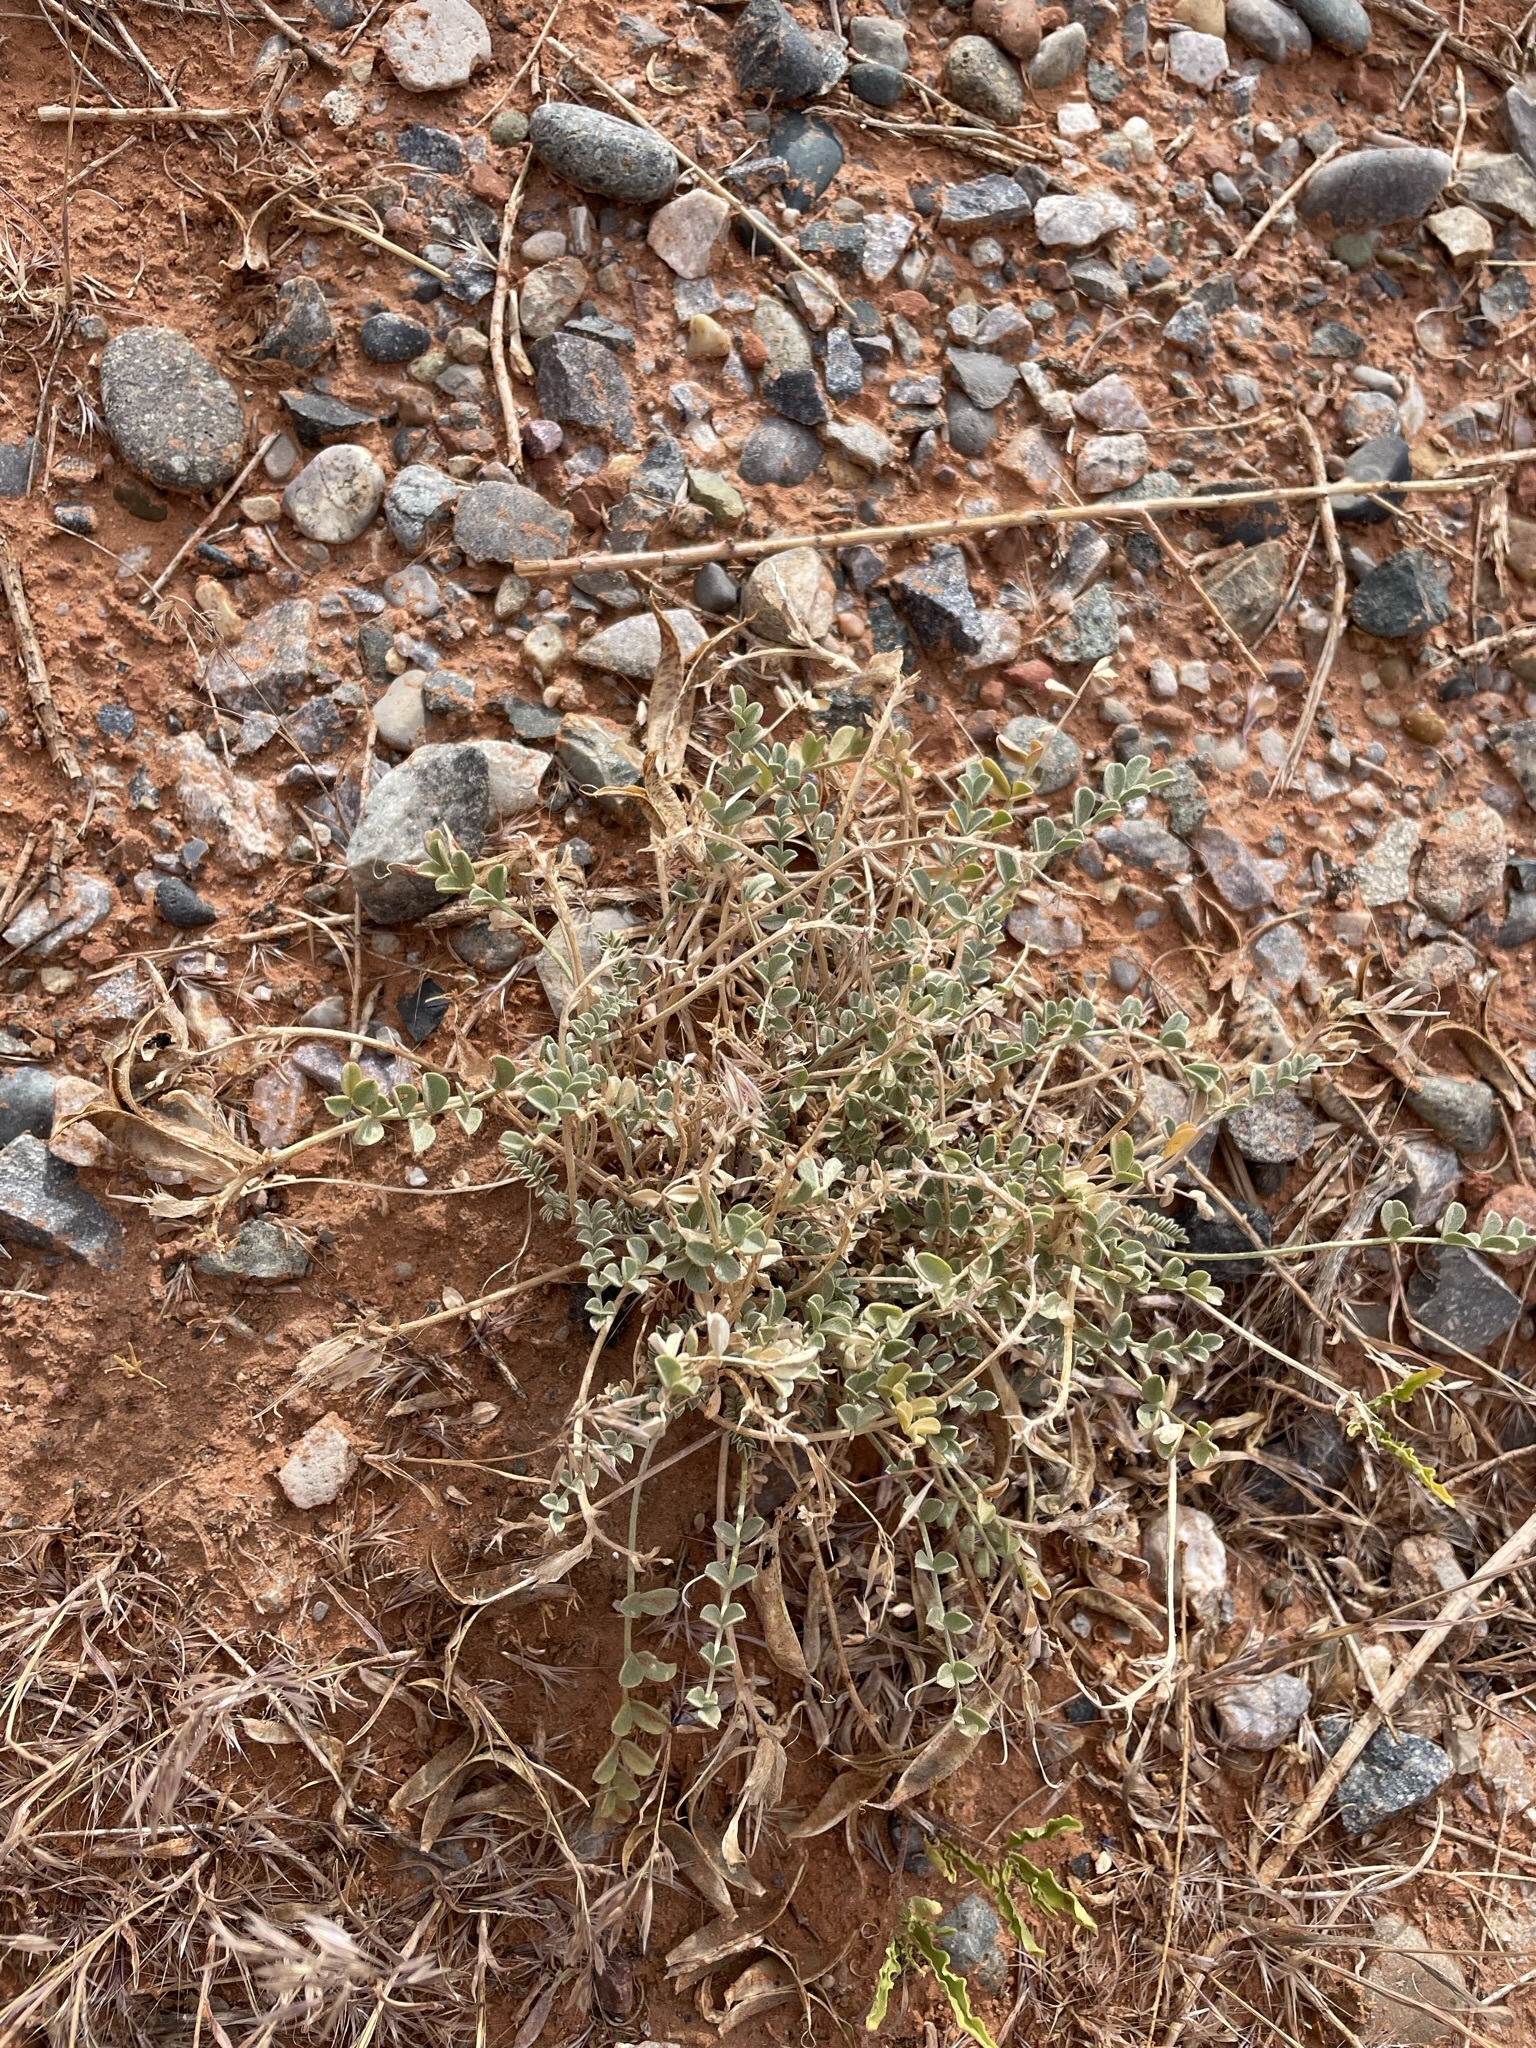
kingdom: Plantae
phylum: Tracheophyta
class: Magnoliopsida
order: Fabales
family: Fabaceae
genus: Astragalus
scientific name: Astragalus amphioxys
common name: Crescent milk-vetch
